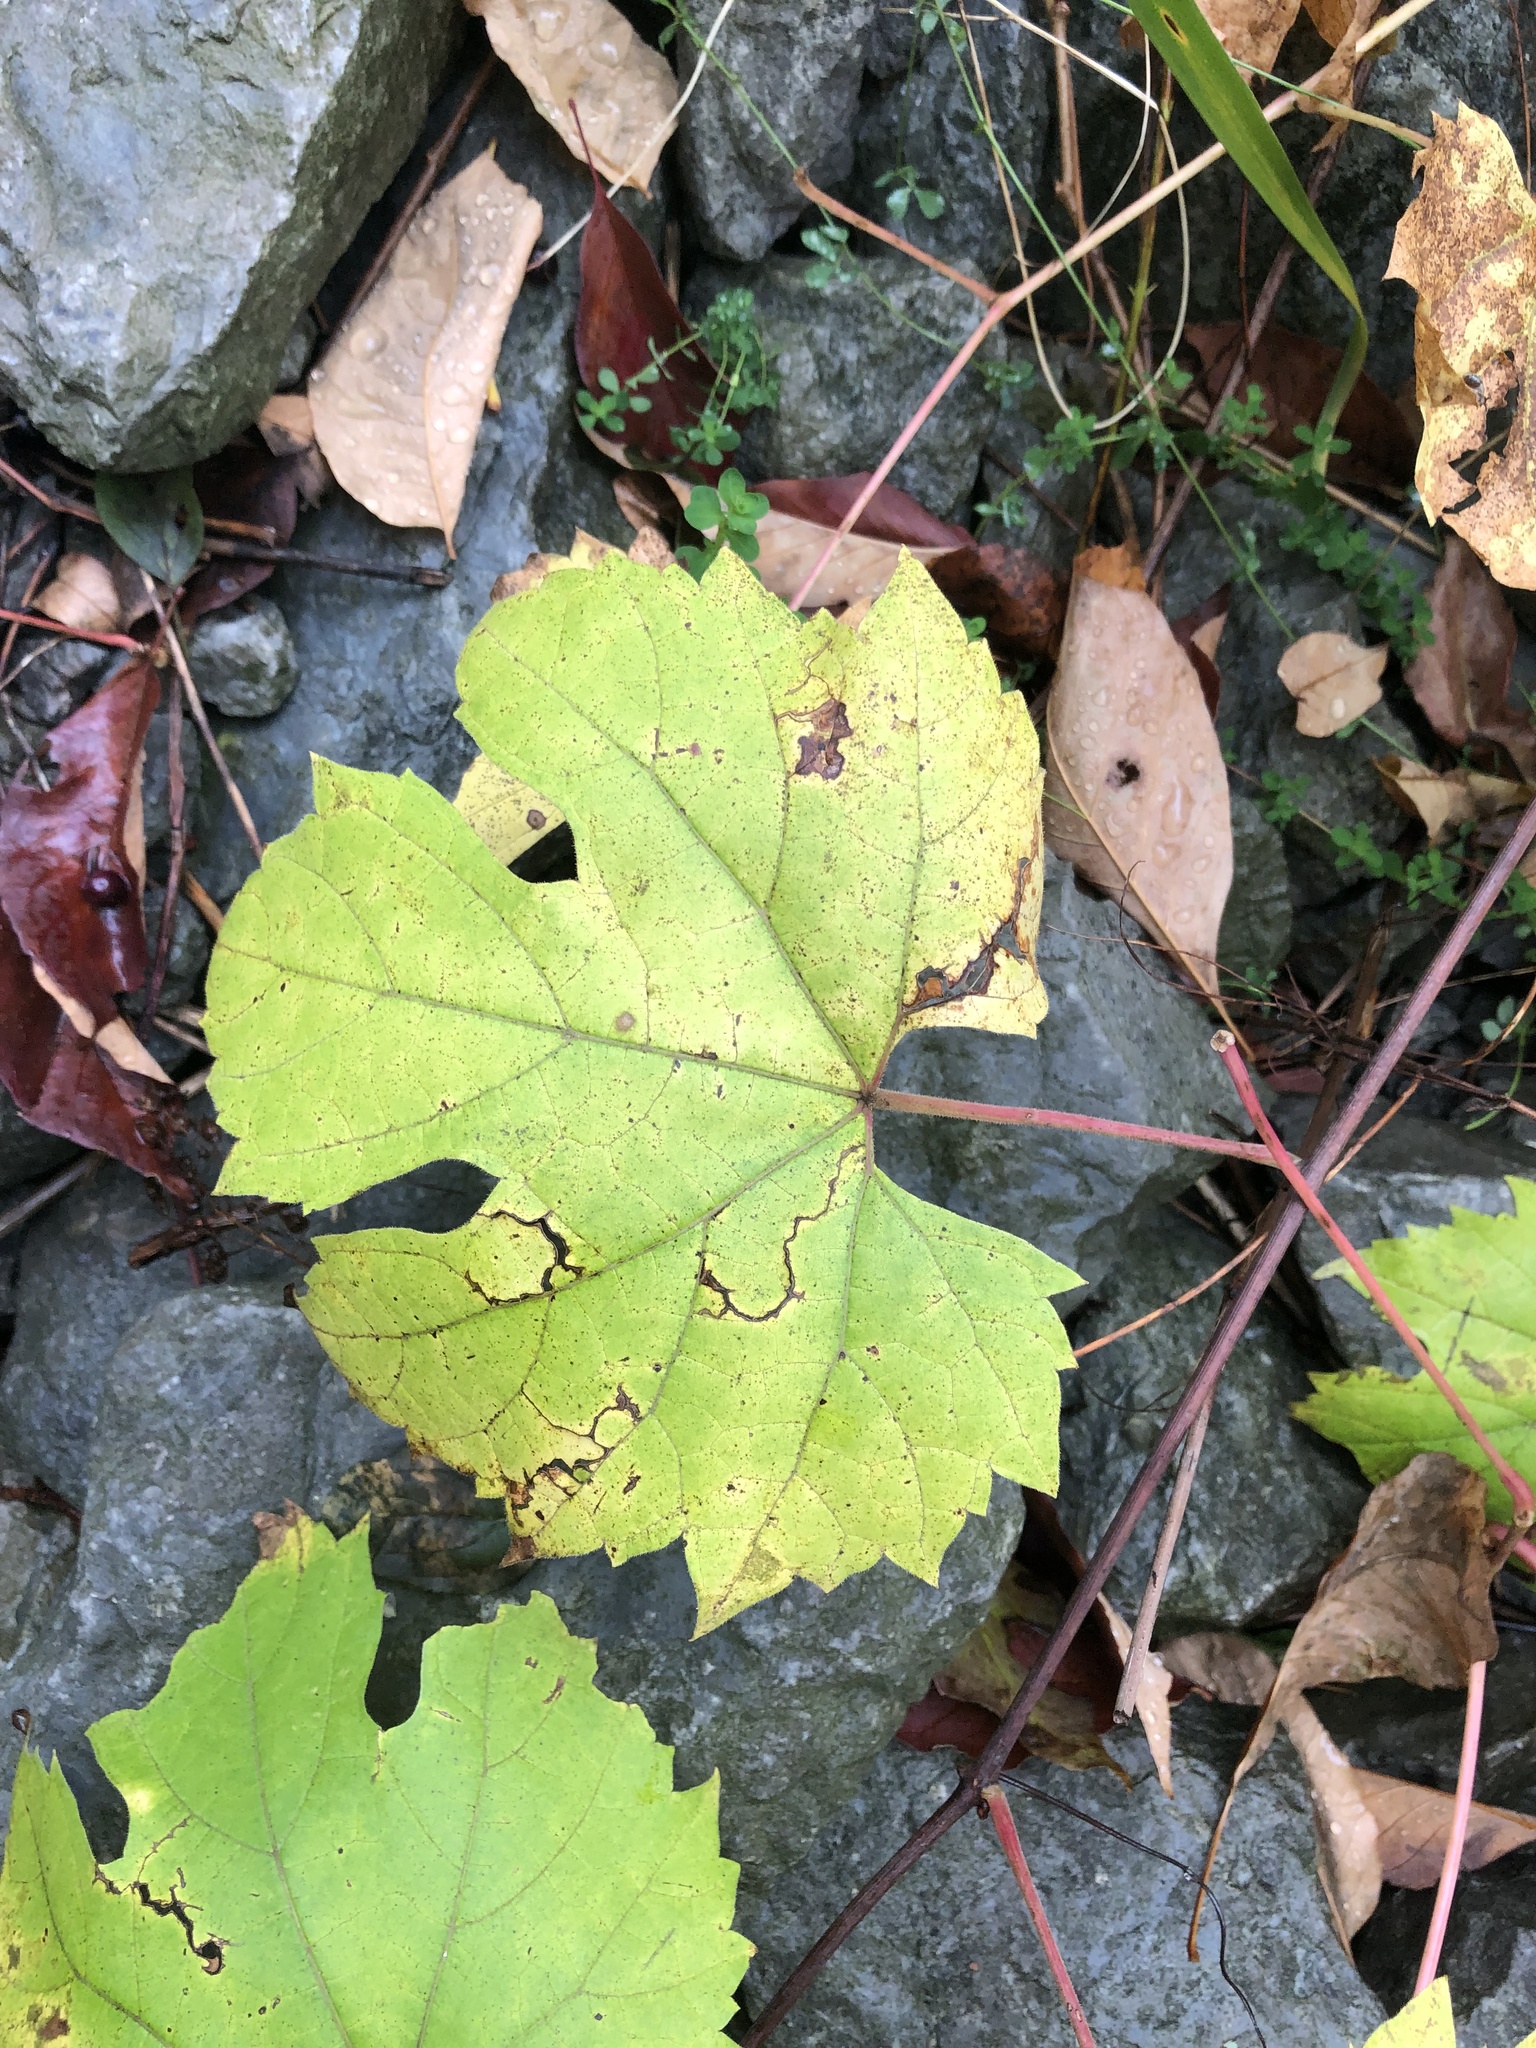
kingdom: Plantae
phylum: Tracheophyta
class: Magnoliopsida
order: Vitales
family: Vitaceae
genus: Vitis
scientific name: Vitis riparia
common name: Frost grape
